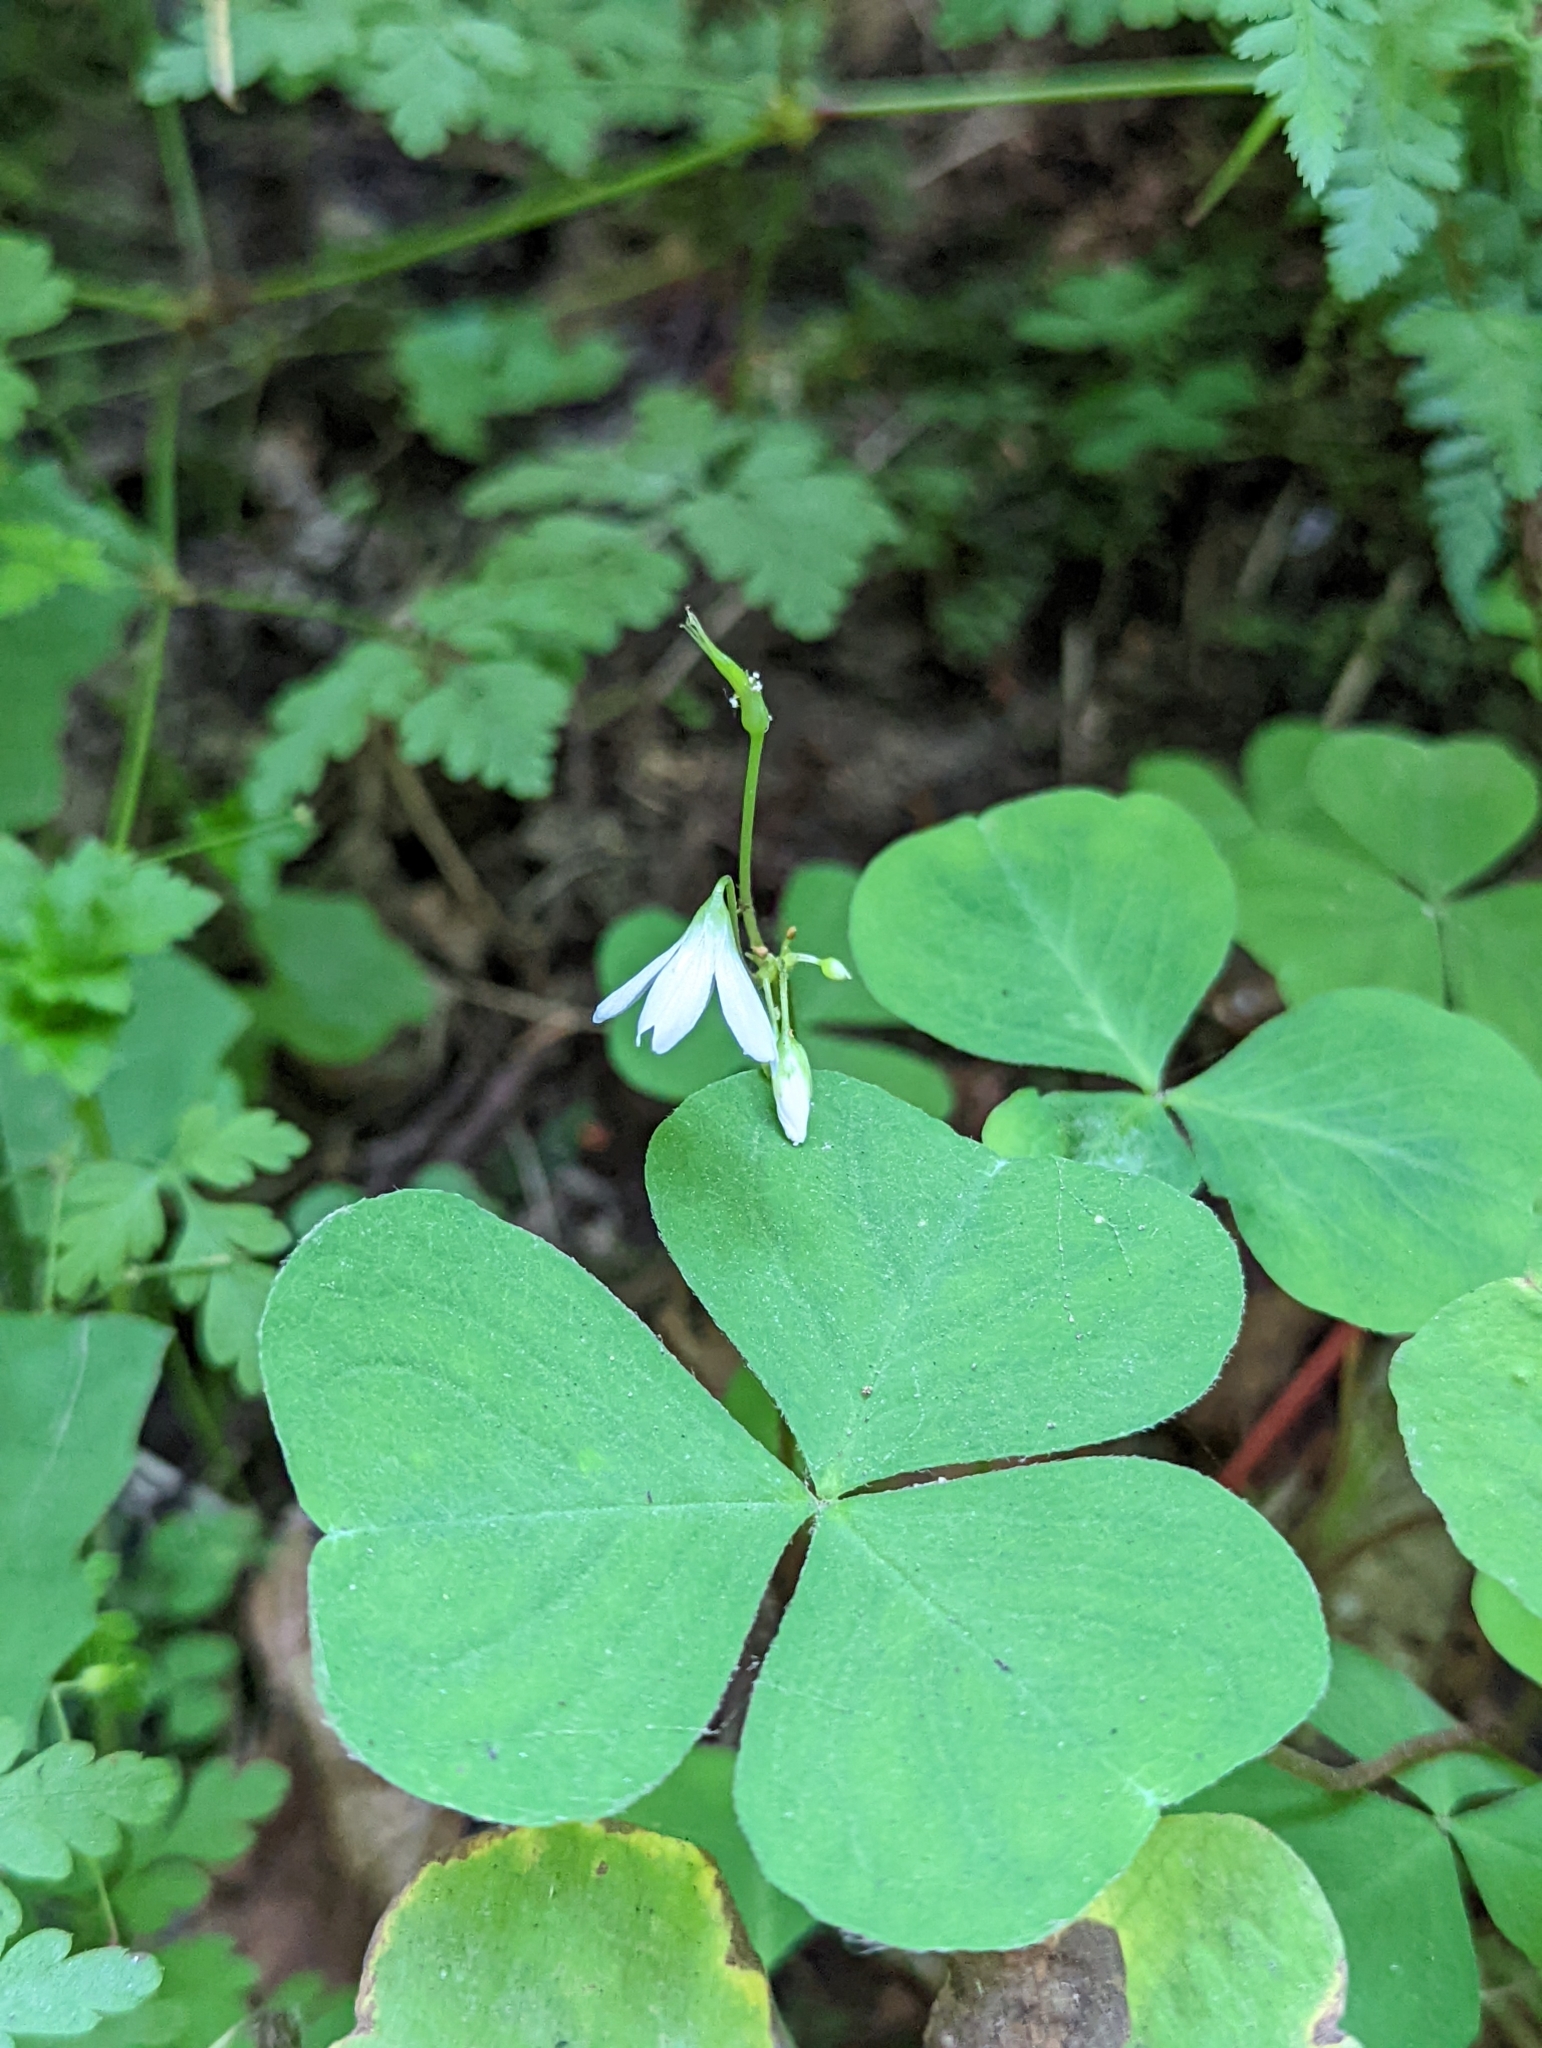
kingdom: Plantae
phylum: Tracheophyta
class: Magnoliopsida
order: Oxalidales
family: Oxalidaceae
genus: Oxalis
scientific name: Oxalis trilliifolia
